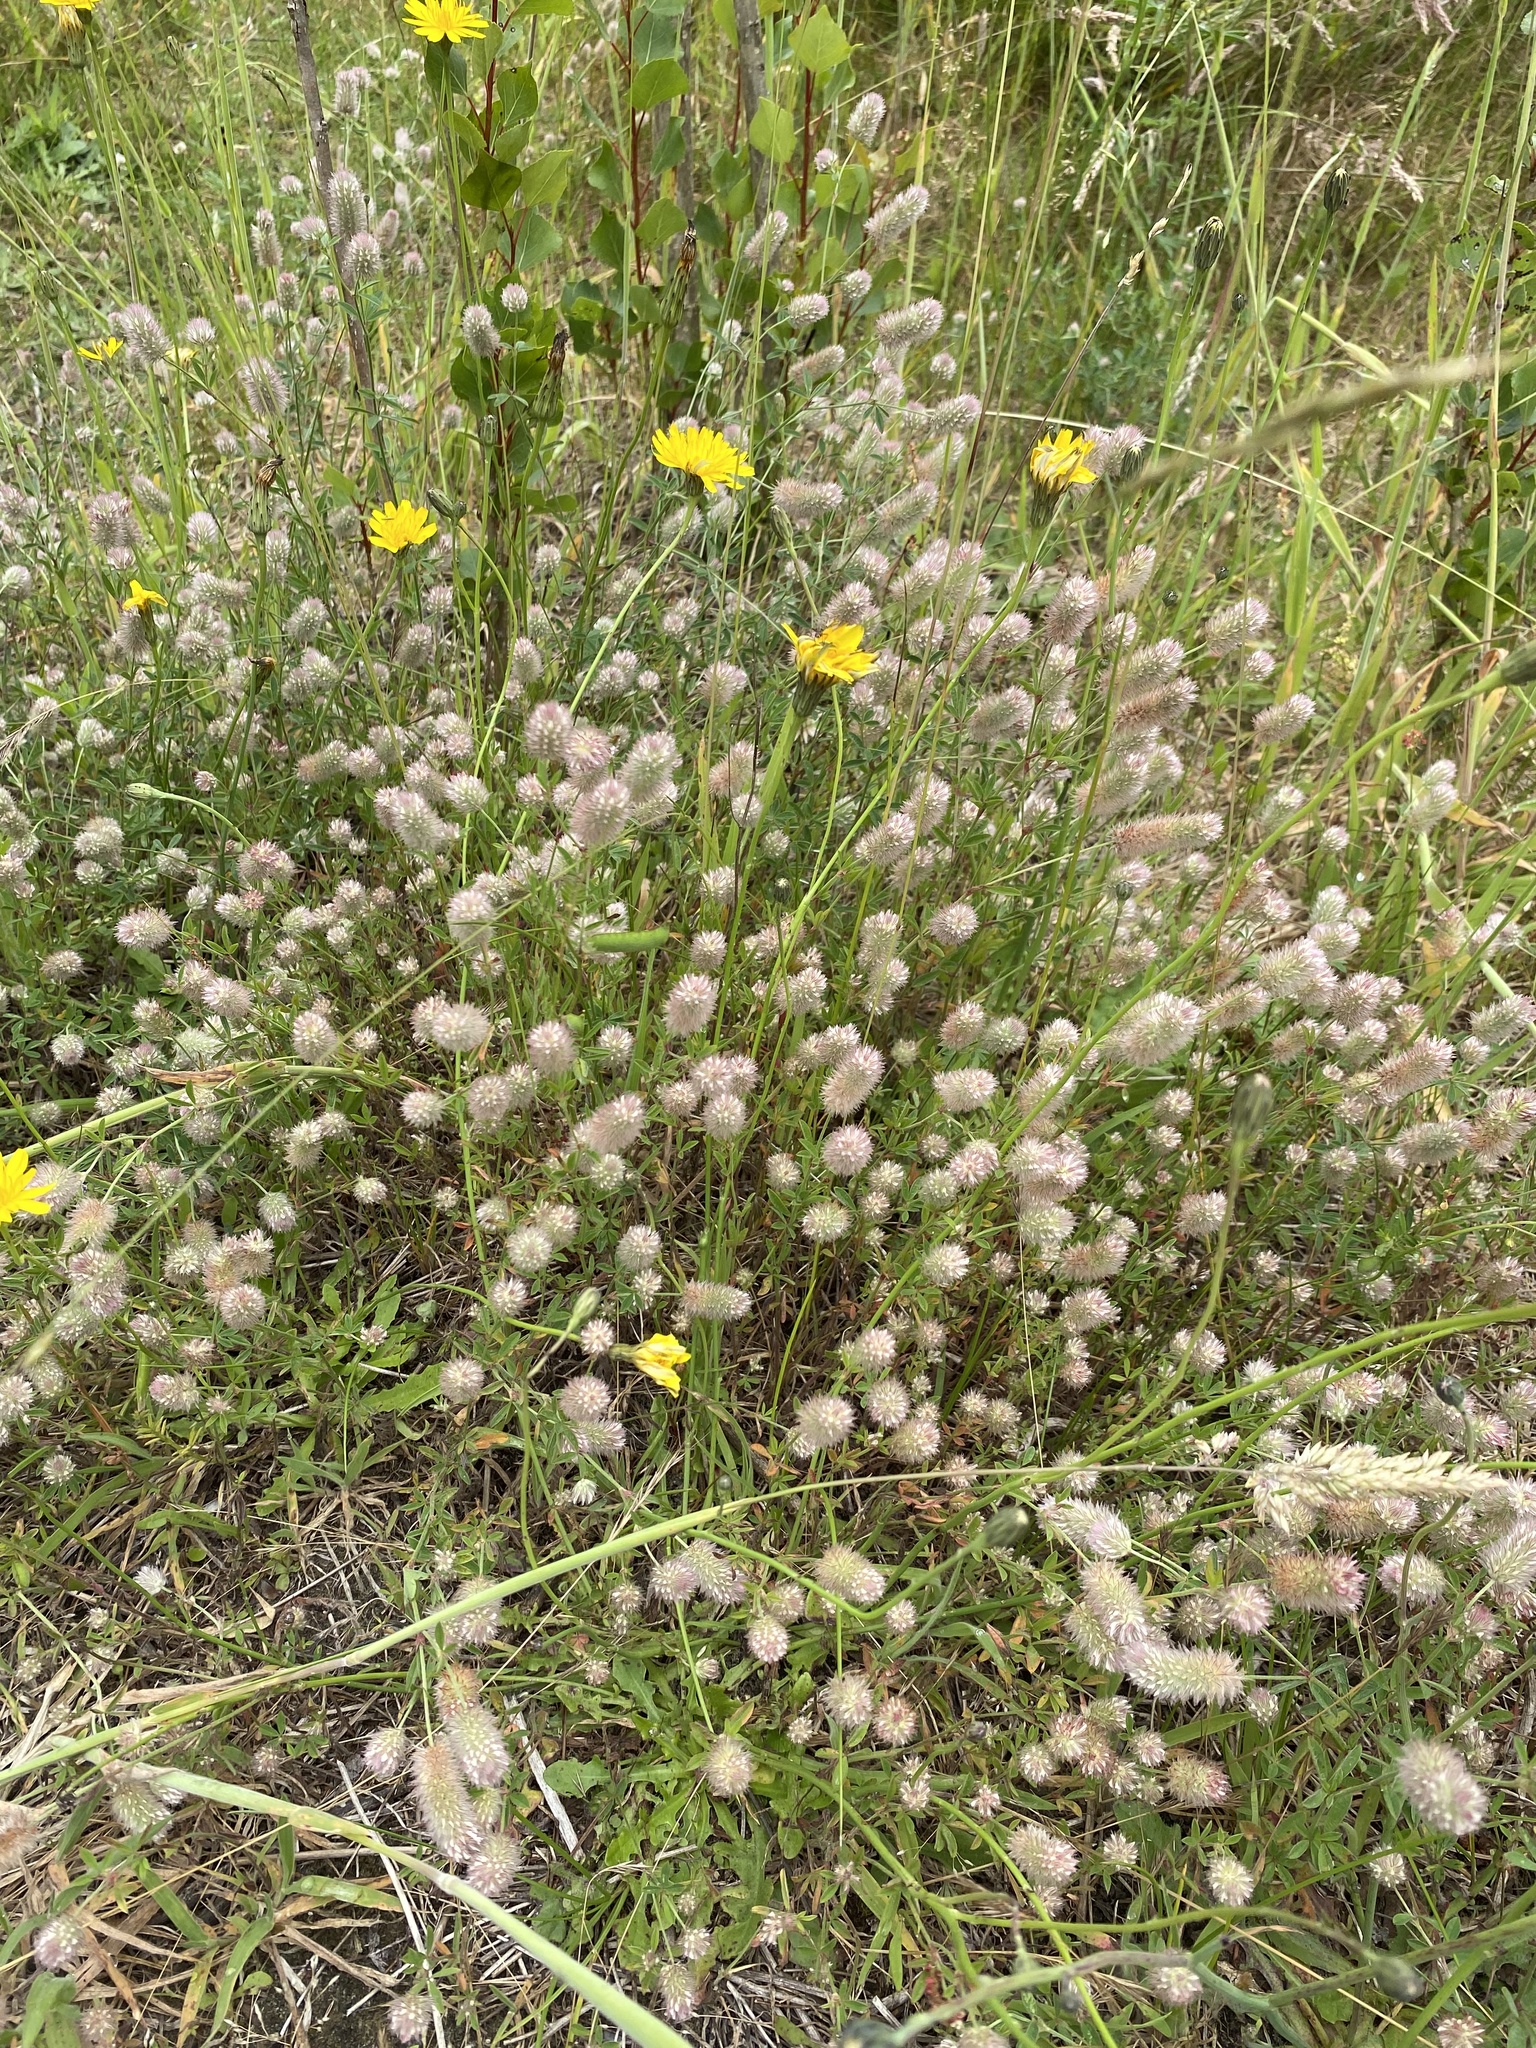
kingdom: Plantae
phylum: Tracheophyta
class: Magnoliopsida
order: Fabales
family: Fabaceae
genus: Trifolium
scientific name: Trifolium arvense
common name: Hare's-foot clover
